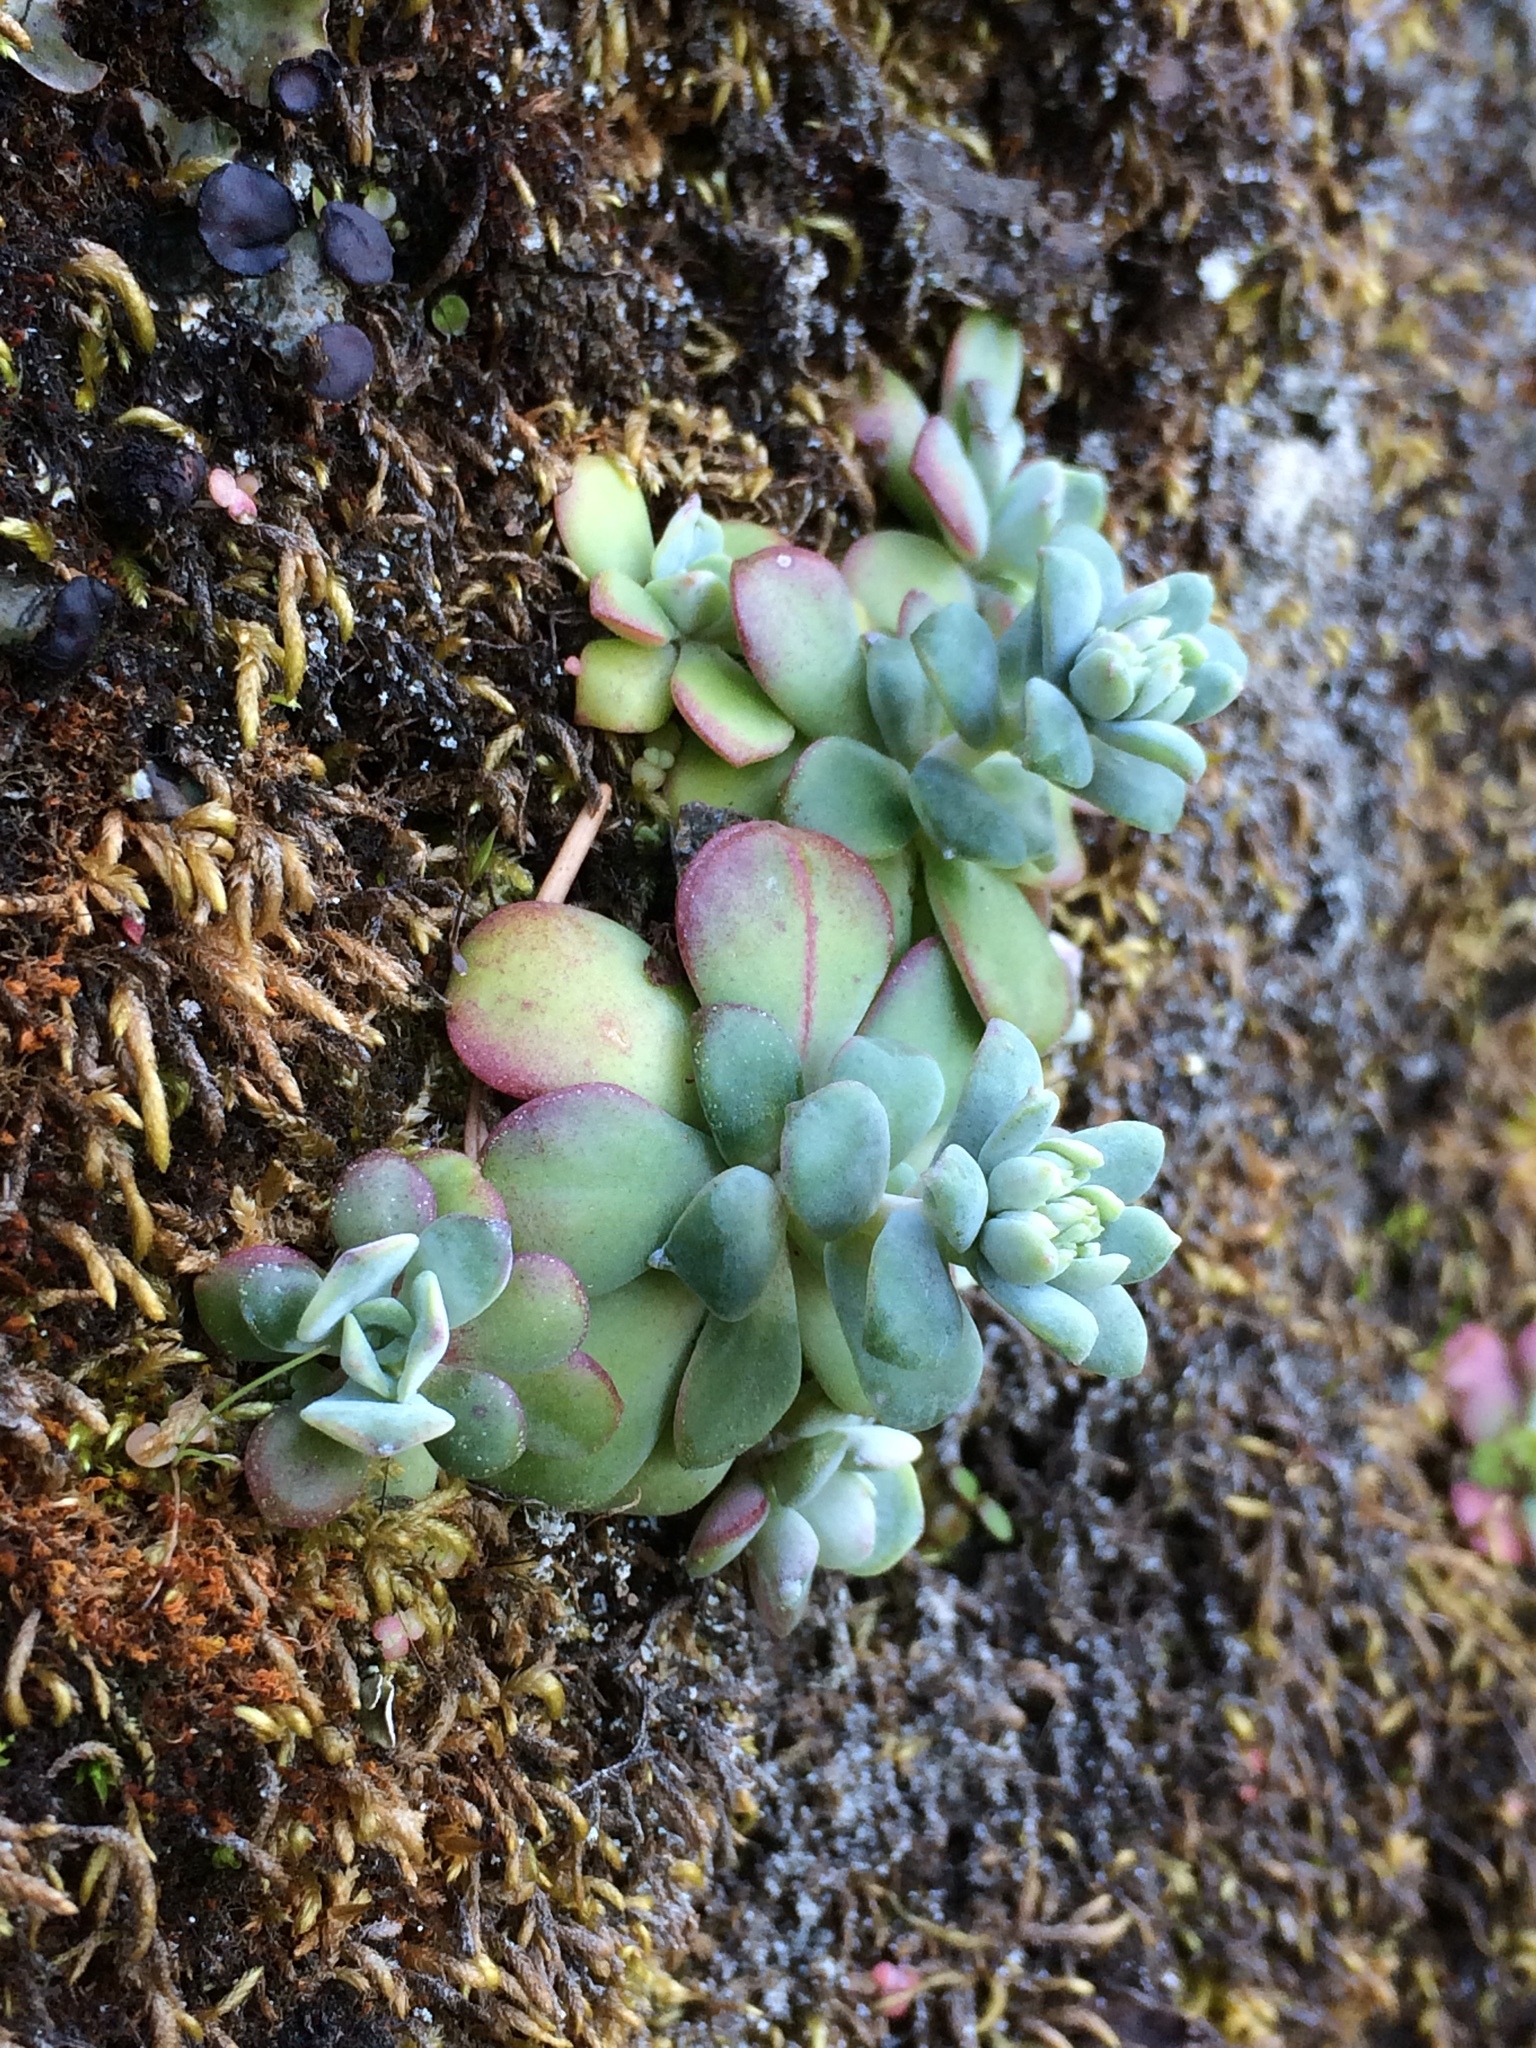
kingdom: Plantae
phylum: Tracheophyta
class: Magnoliopsida
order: Saxifragales
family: Crassulaceae
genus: Sedum
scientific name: Sedum spathulifolium
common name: Colorado stonecrop
